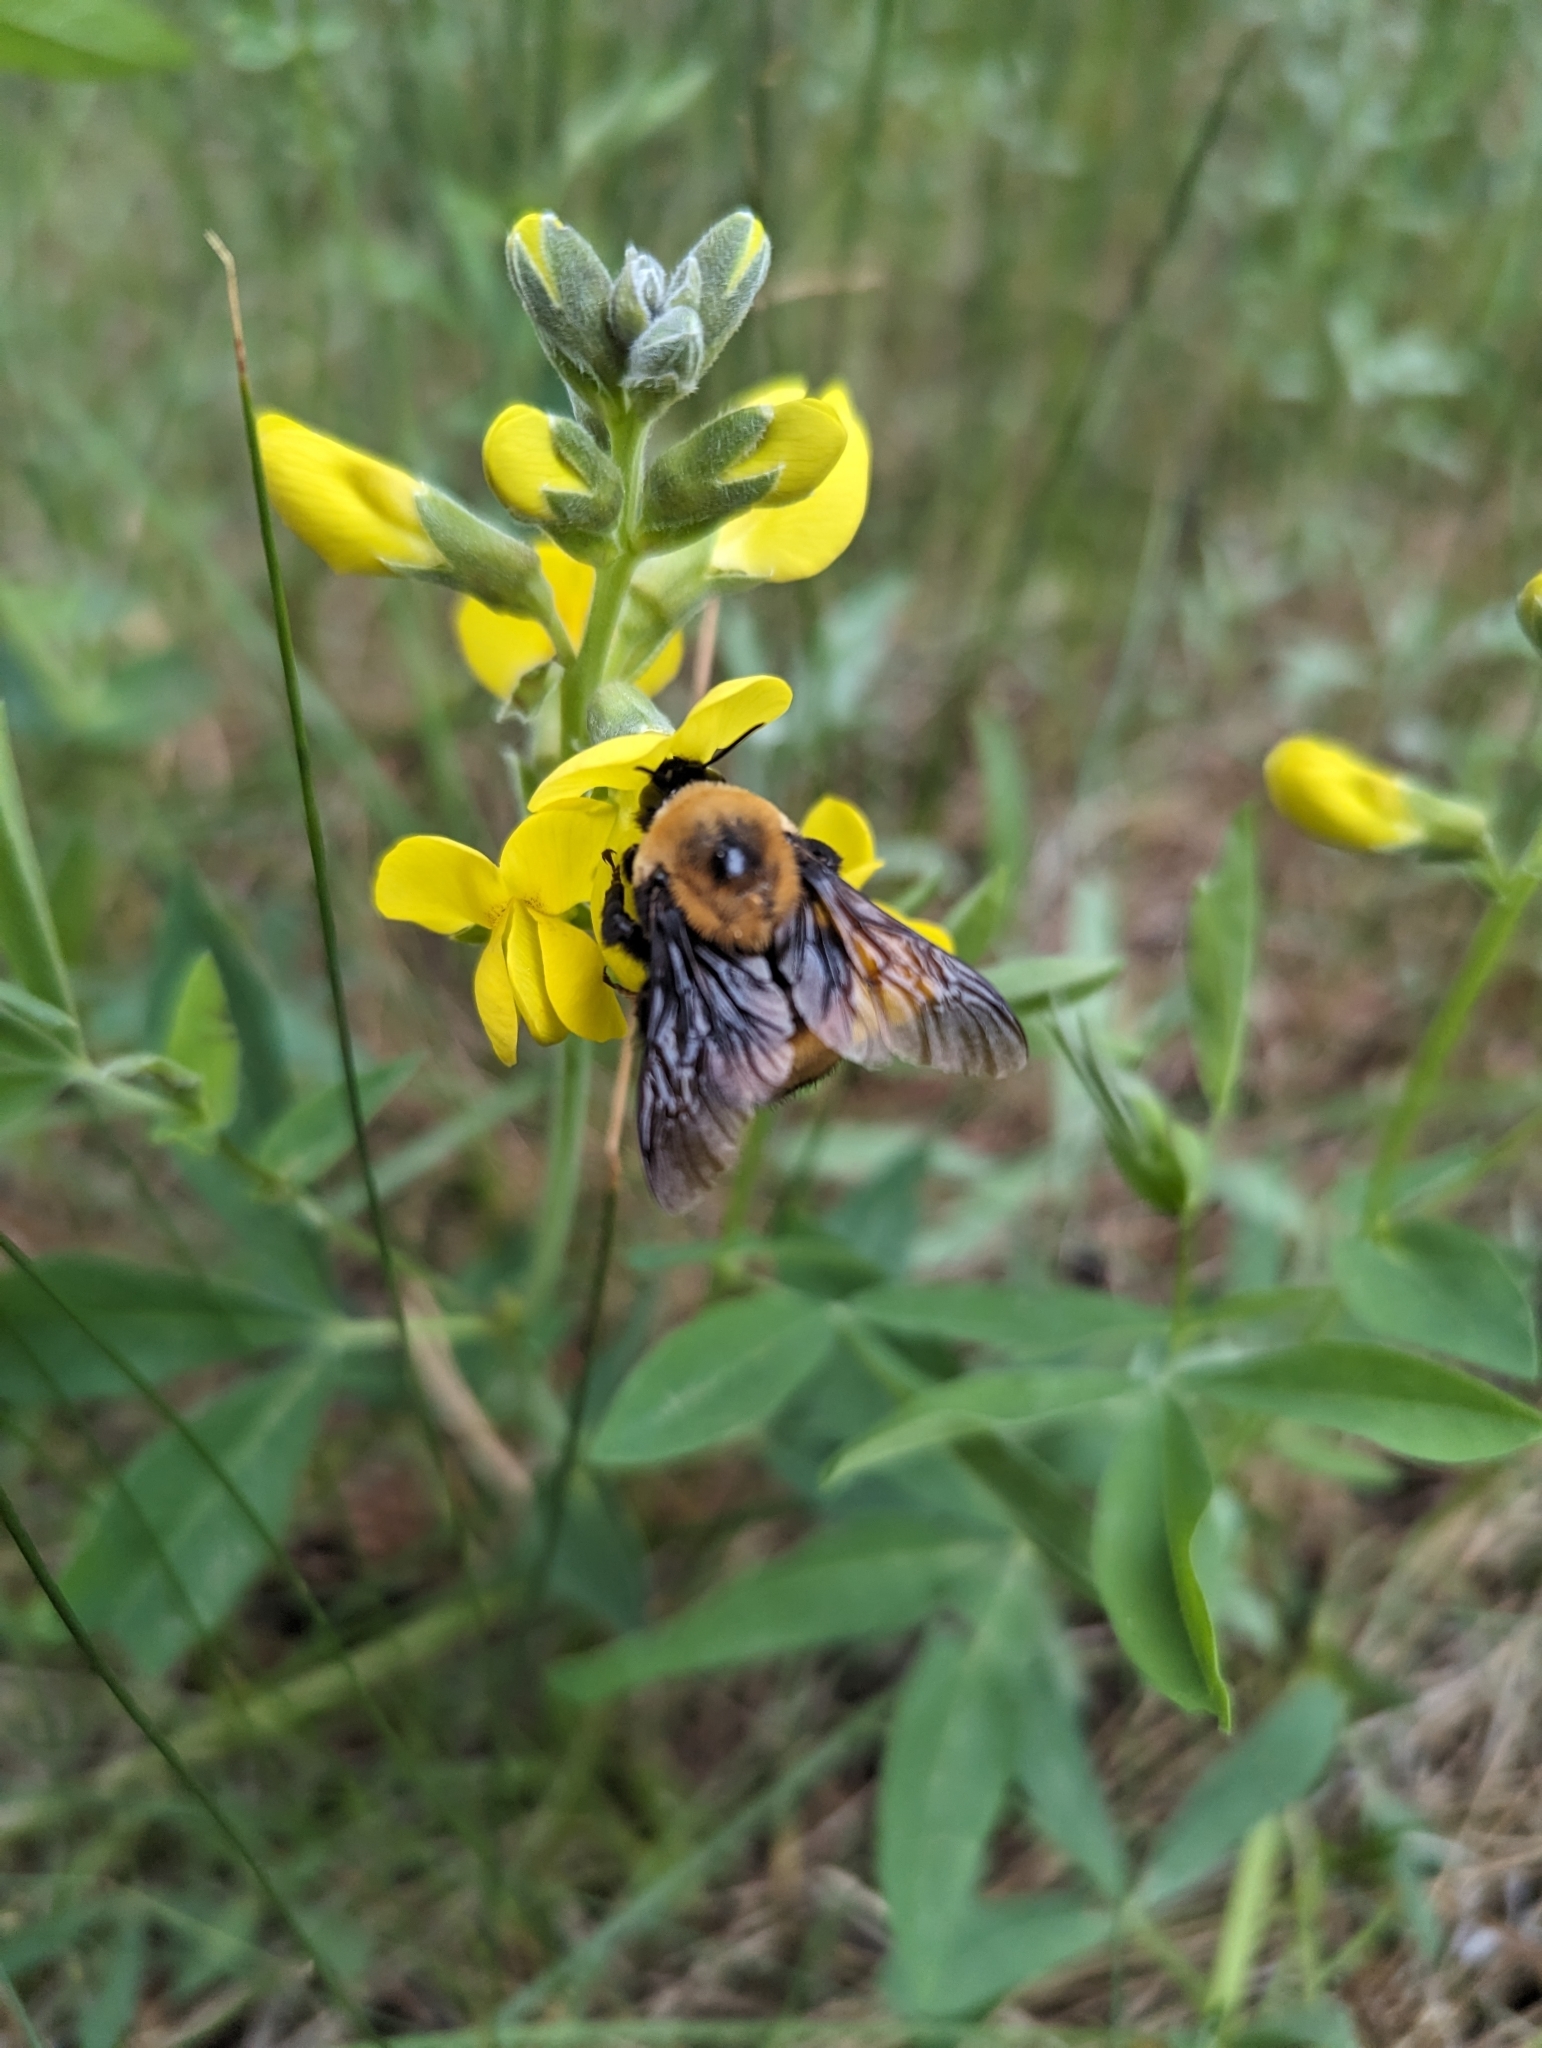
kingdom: Animalia
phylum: Arthropoda
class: Insecta
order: Hymenoptera
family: Apidae
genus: Bombus
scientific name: Bombus nevadensis
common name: Nevada bumble bee
